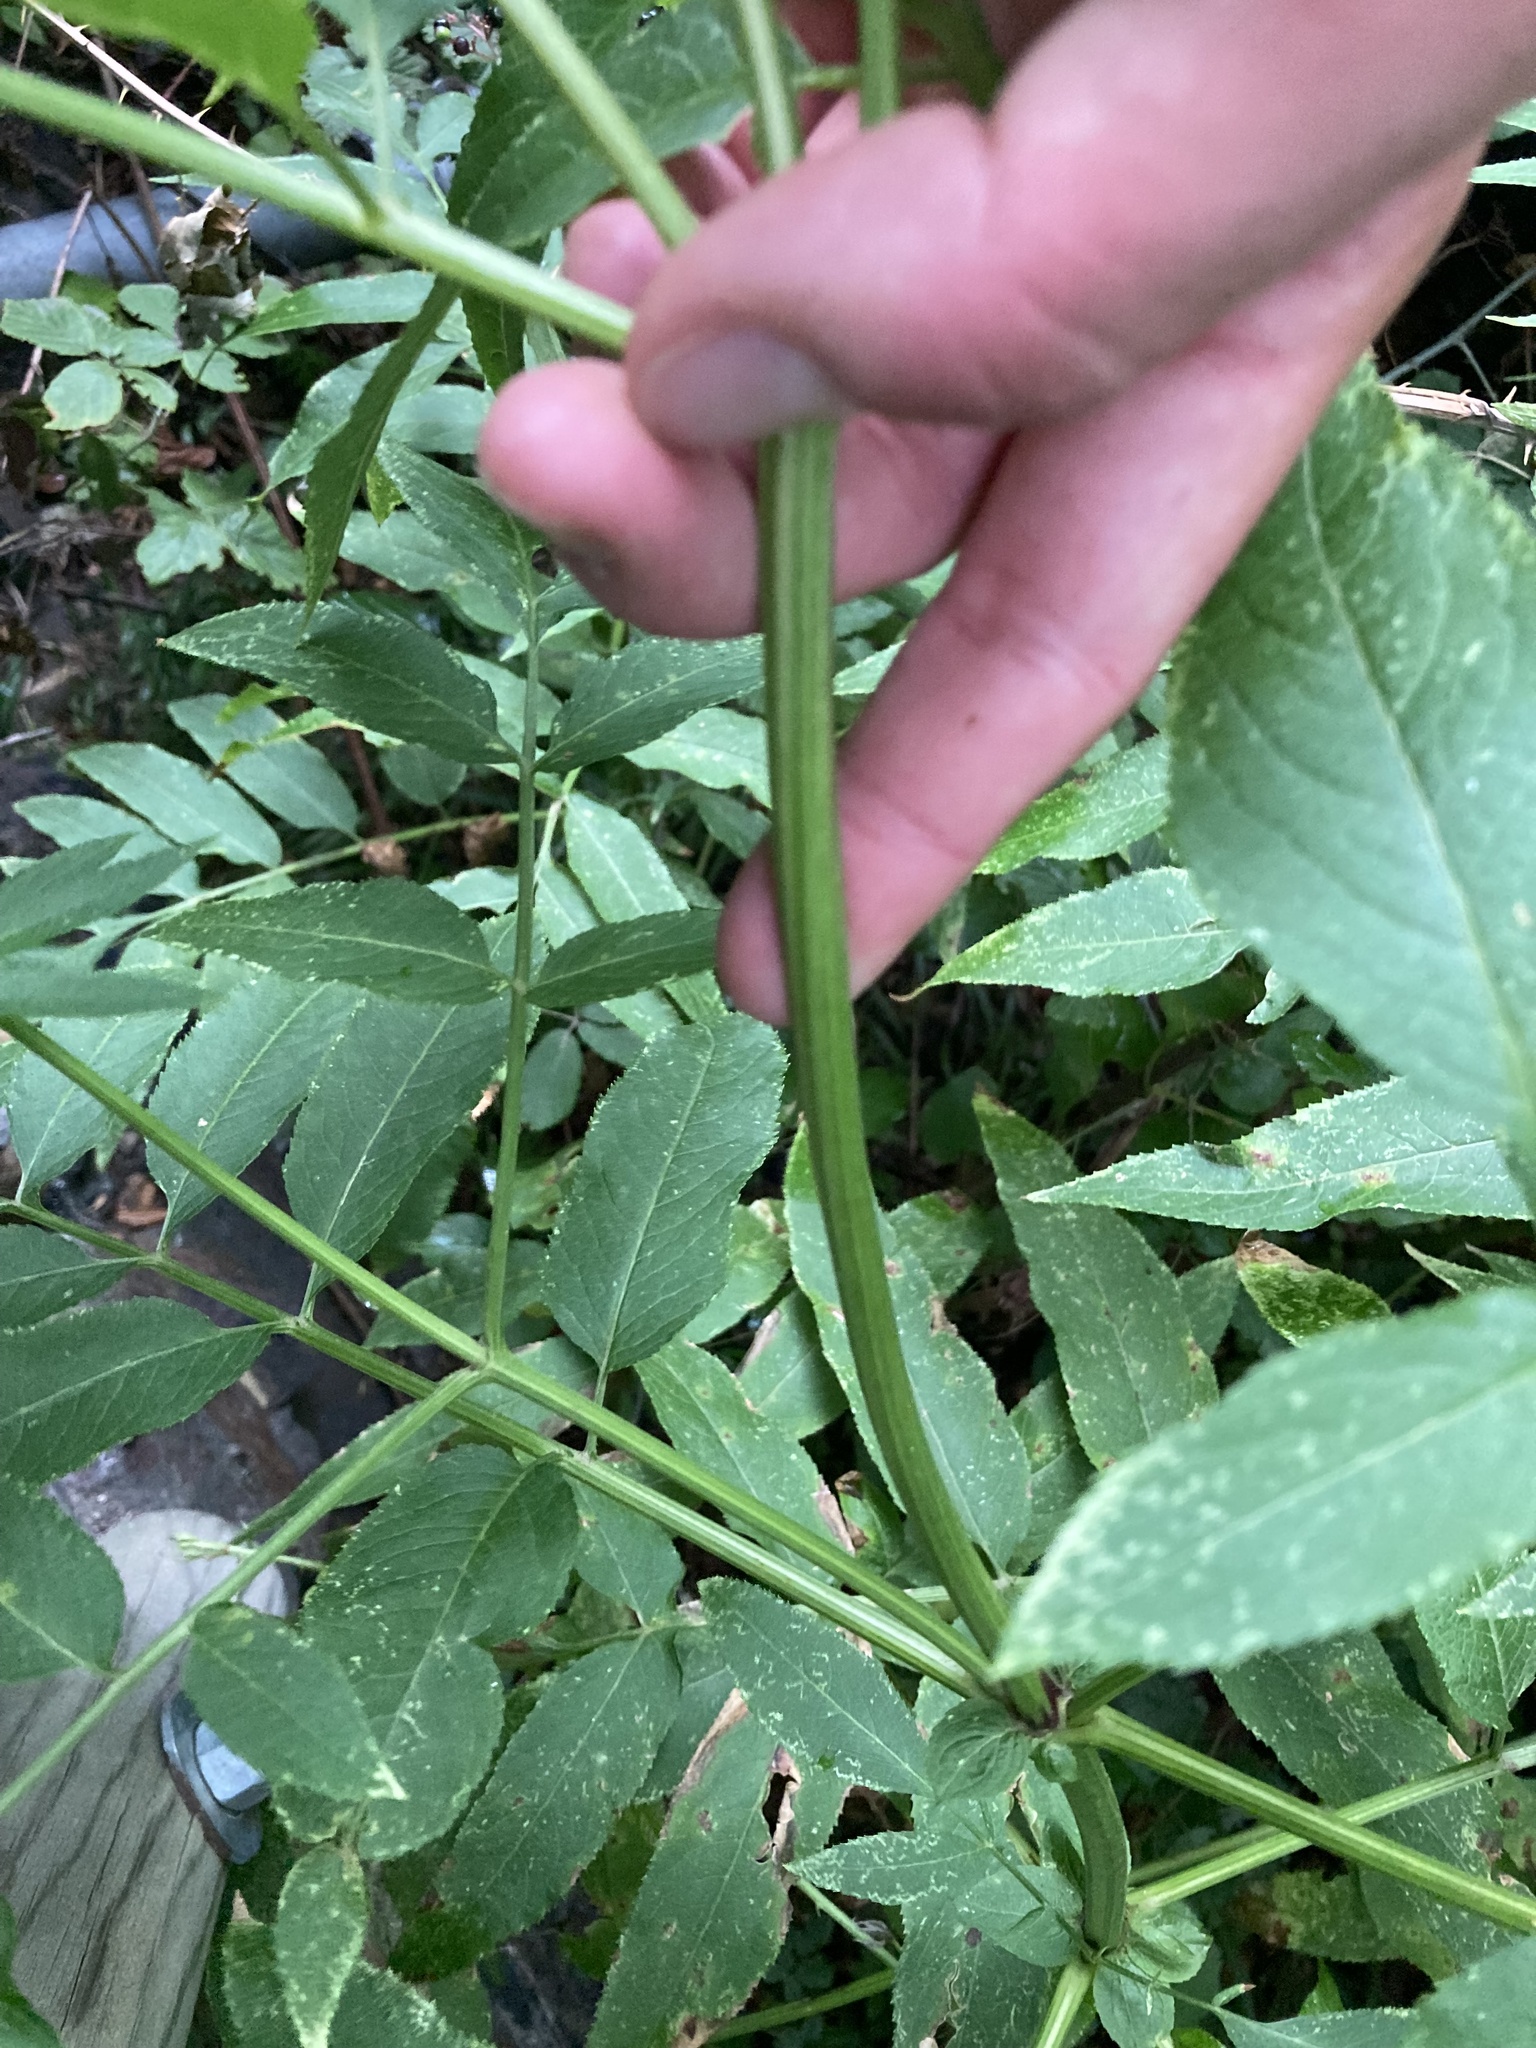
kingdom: Plantae
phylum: Tracheophyta
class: Magnoliopsida
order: Dipsacales
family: Viburnaceae
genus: Sambucus
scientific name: Sambucus ebulus
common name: Dwarf elder
